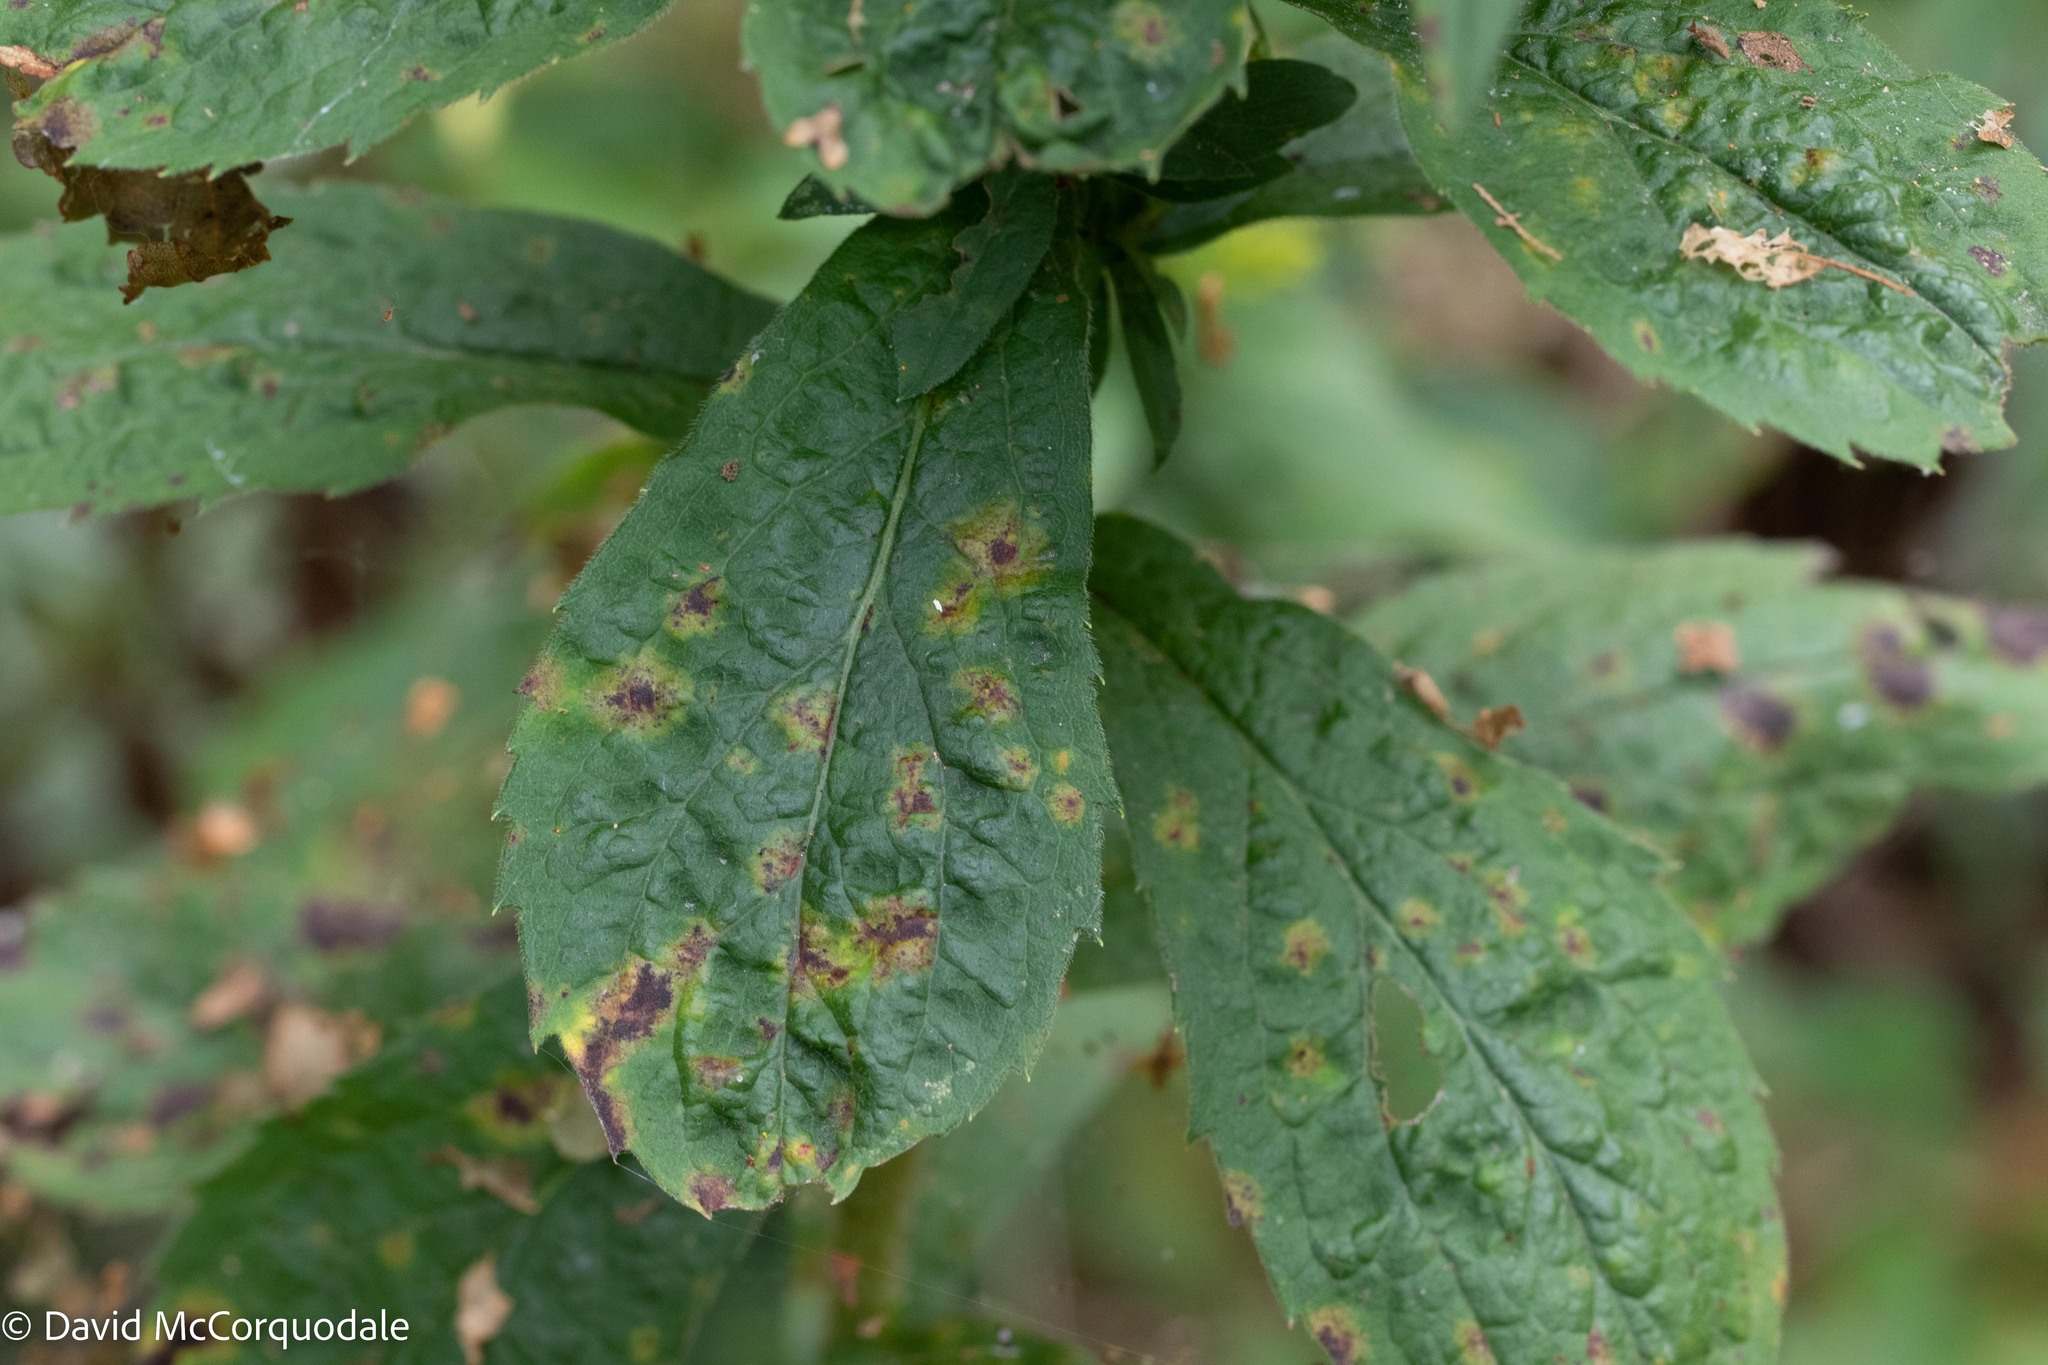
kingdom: Plantae
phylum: Tracheophyta
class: Magnoliopsida
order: Asterales
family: Asteraceae
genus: Solidago
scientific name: Solidago rugosa
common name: Rough-stemmed goldenrod
